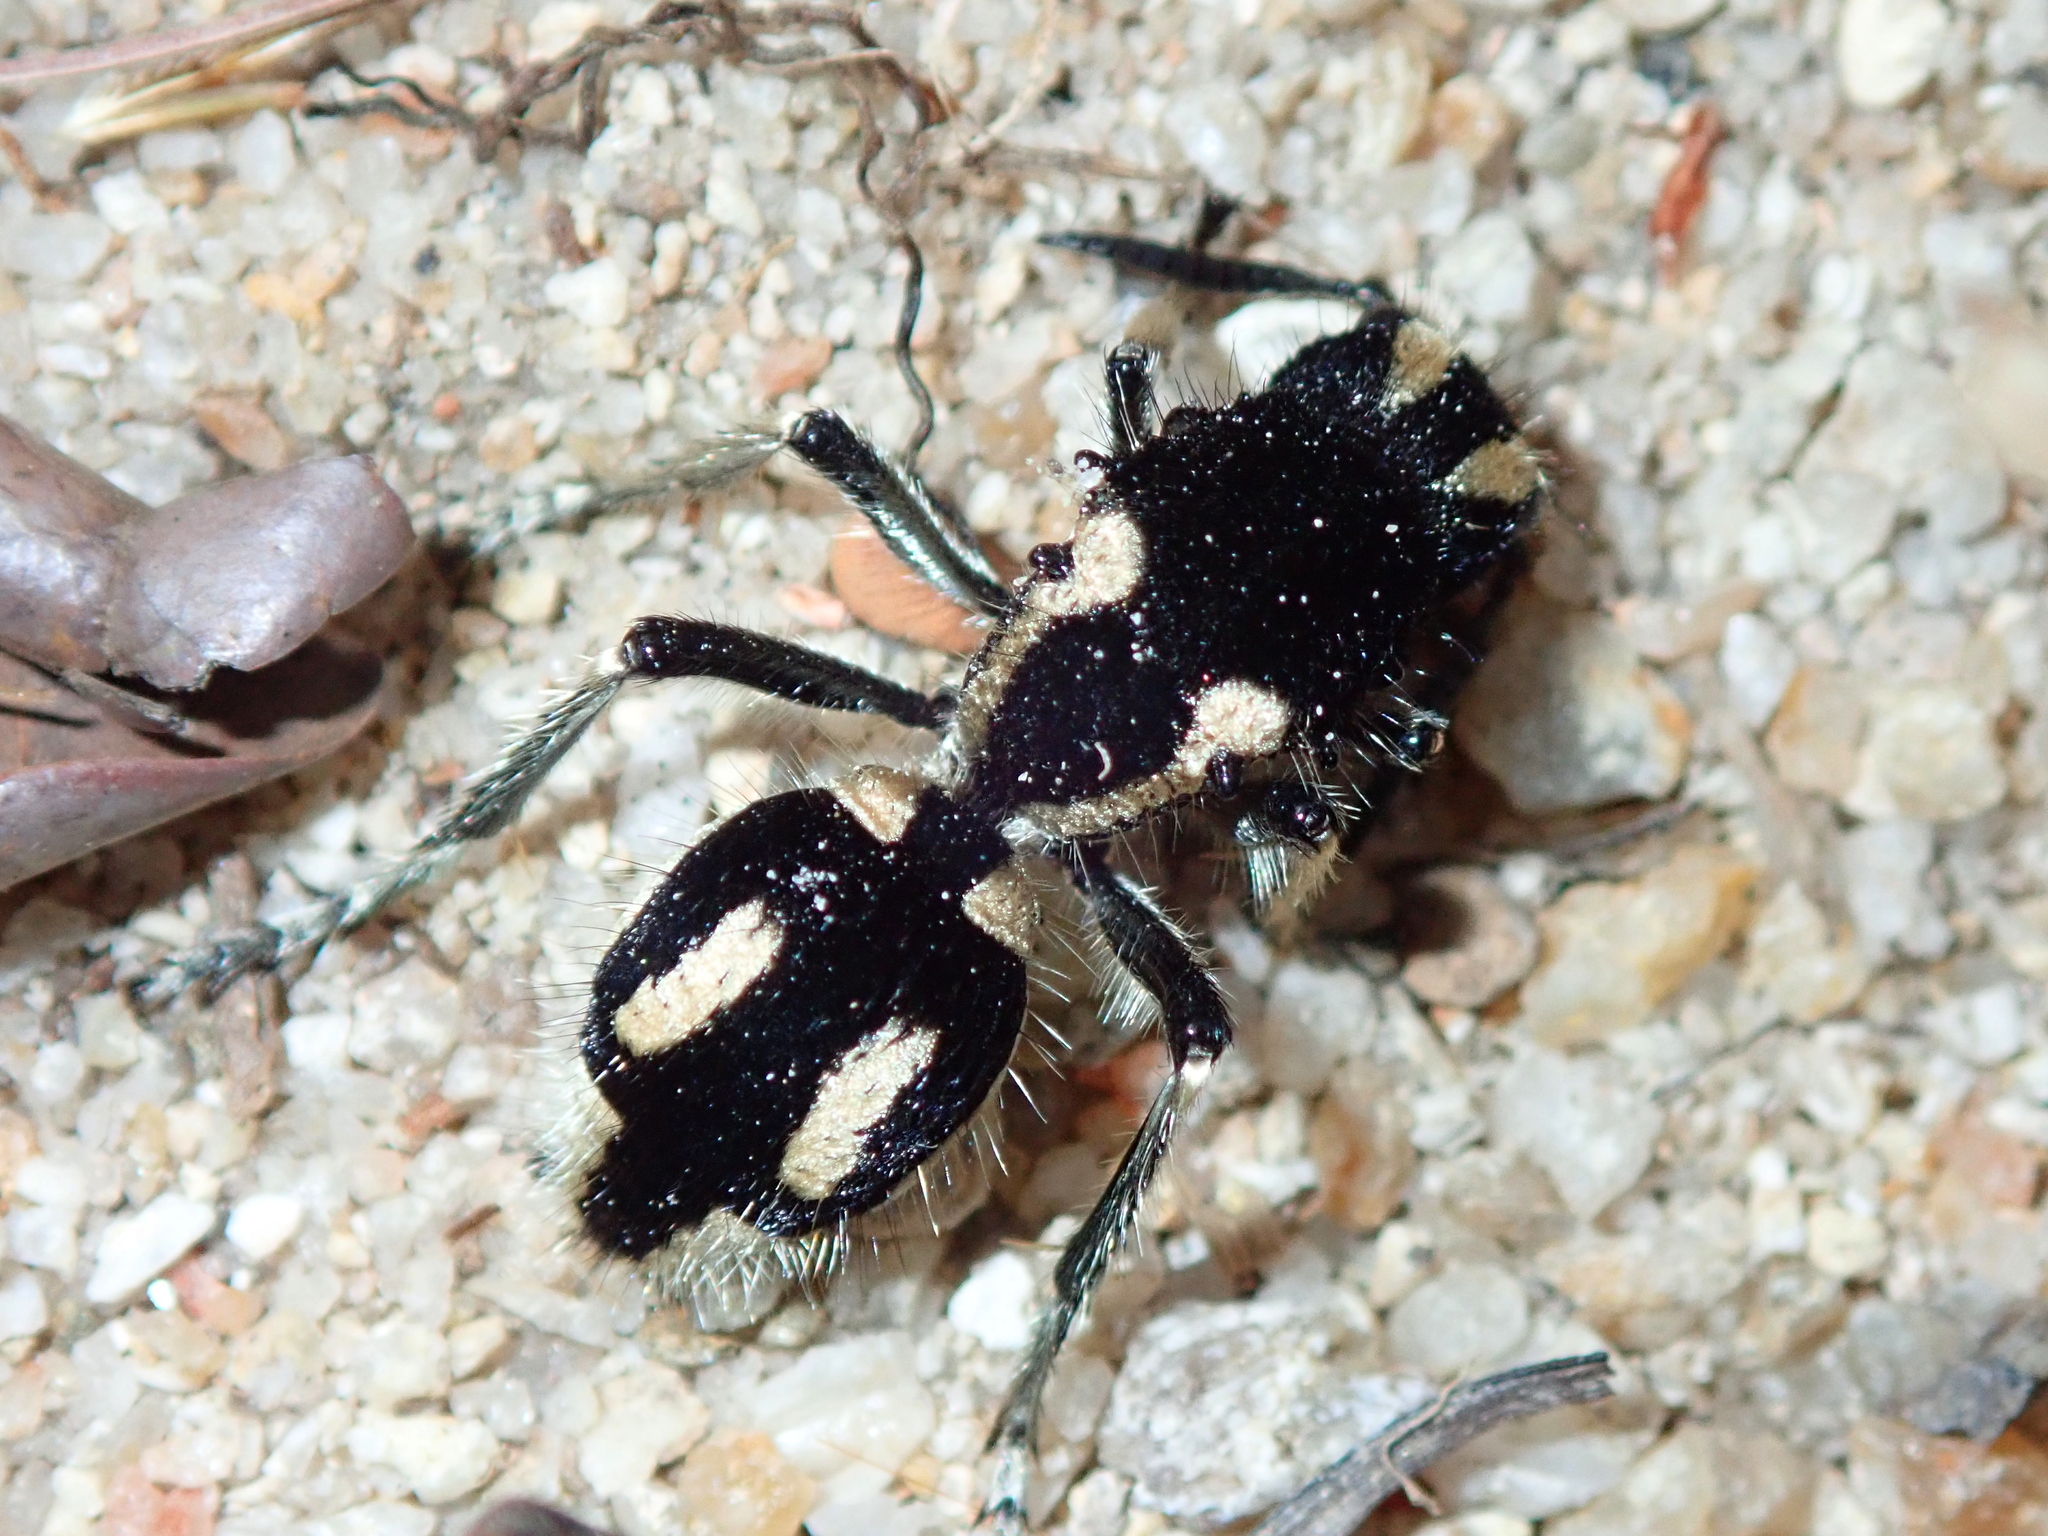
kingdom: Animalia
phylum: Arthropoda
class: Insecta
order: Hymenoptera
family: Mutillidae
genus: Hoplomutilla
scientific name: Hoplomutilla
